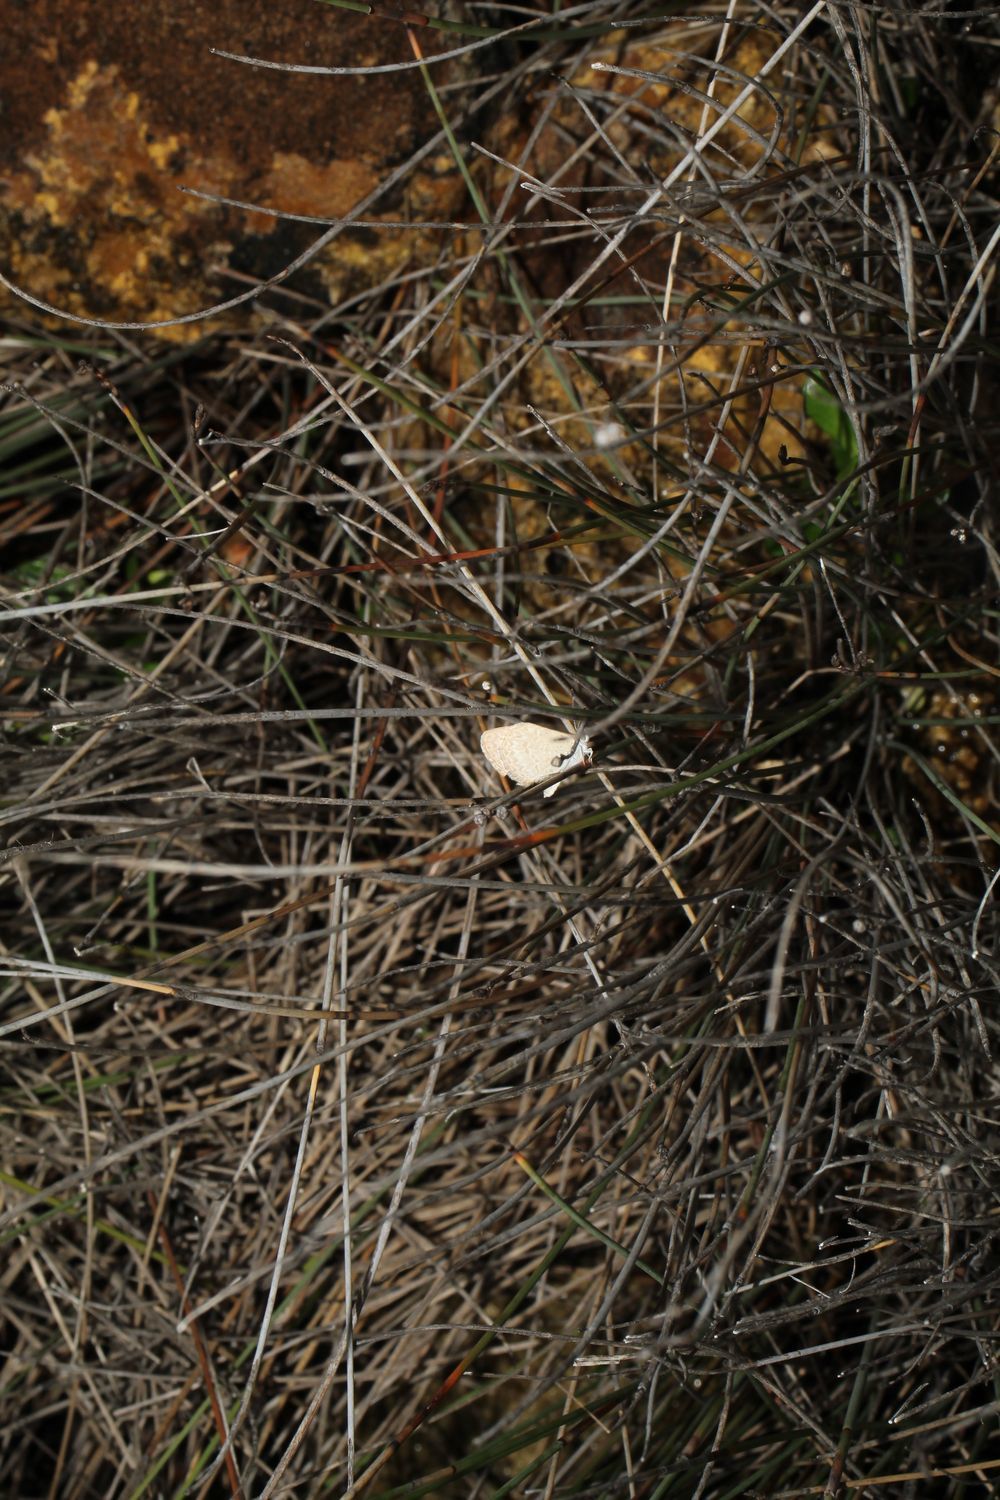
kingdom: Animalia
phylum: Arthropoda
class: Insecta
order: Lepidoptera
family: Lycaenidae
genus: Zizina
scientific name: Zizina labradus
